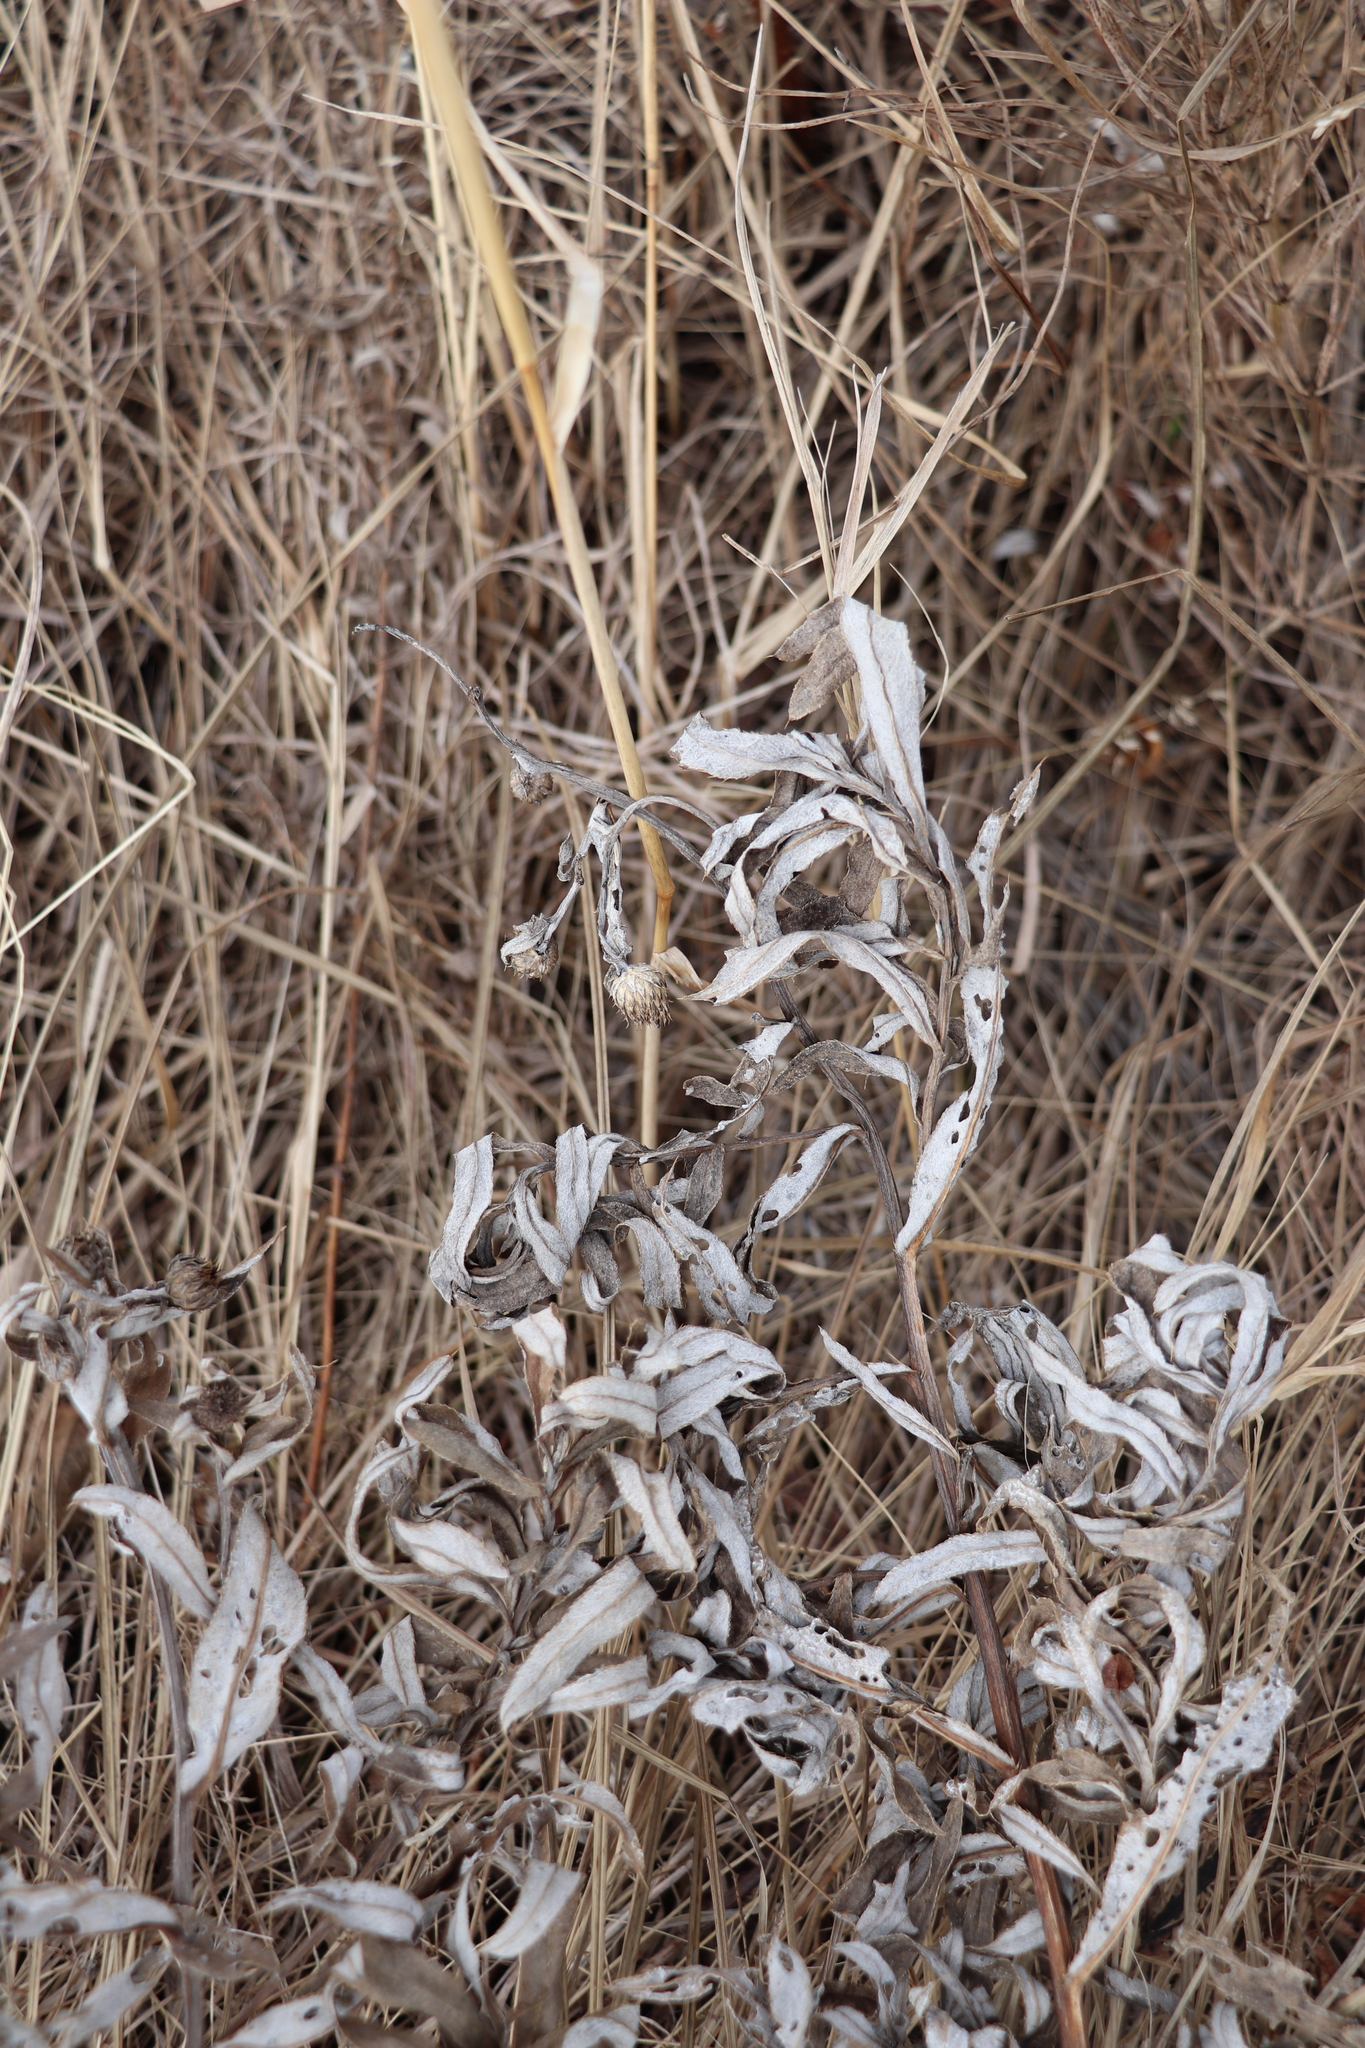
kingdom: Plantae
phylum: Tracheophyta
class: Magnoliopsida
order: Asterales
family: Asteraceae
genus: Cirsium
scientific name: Cirsium arvense
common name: Creeping thistle
